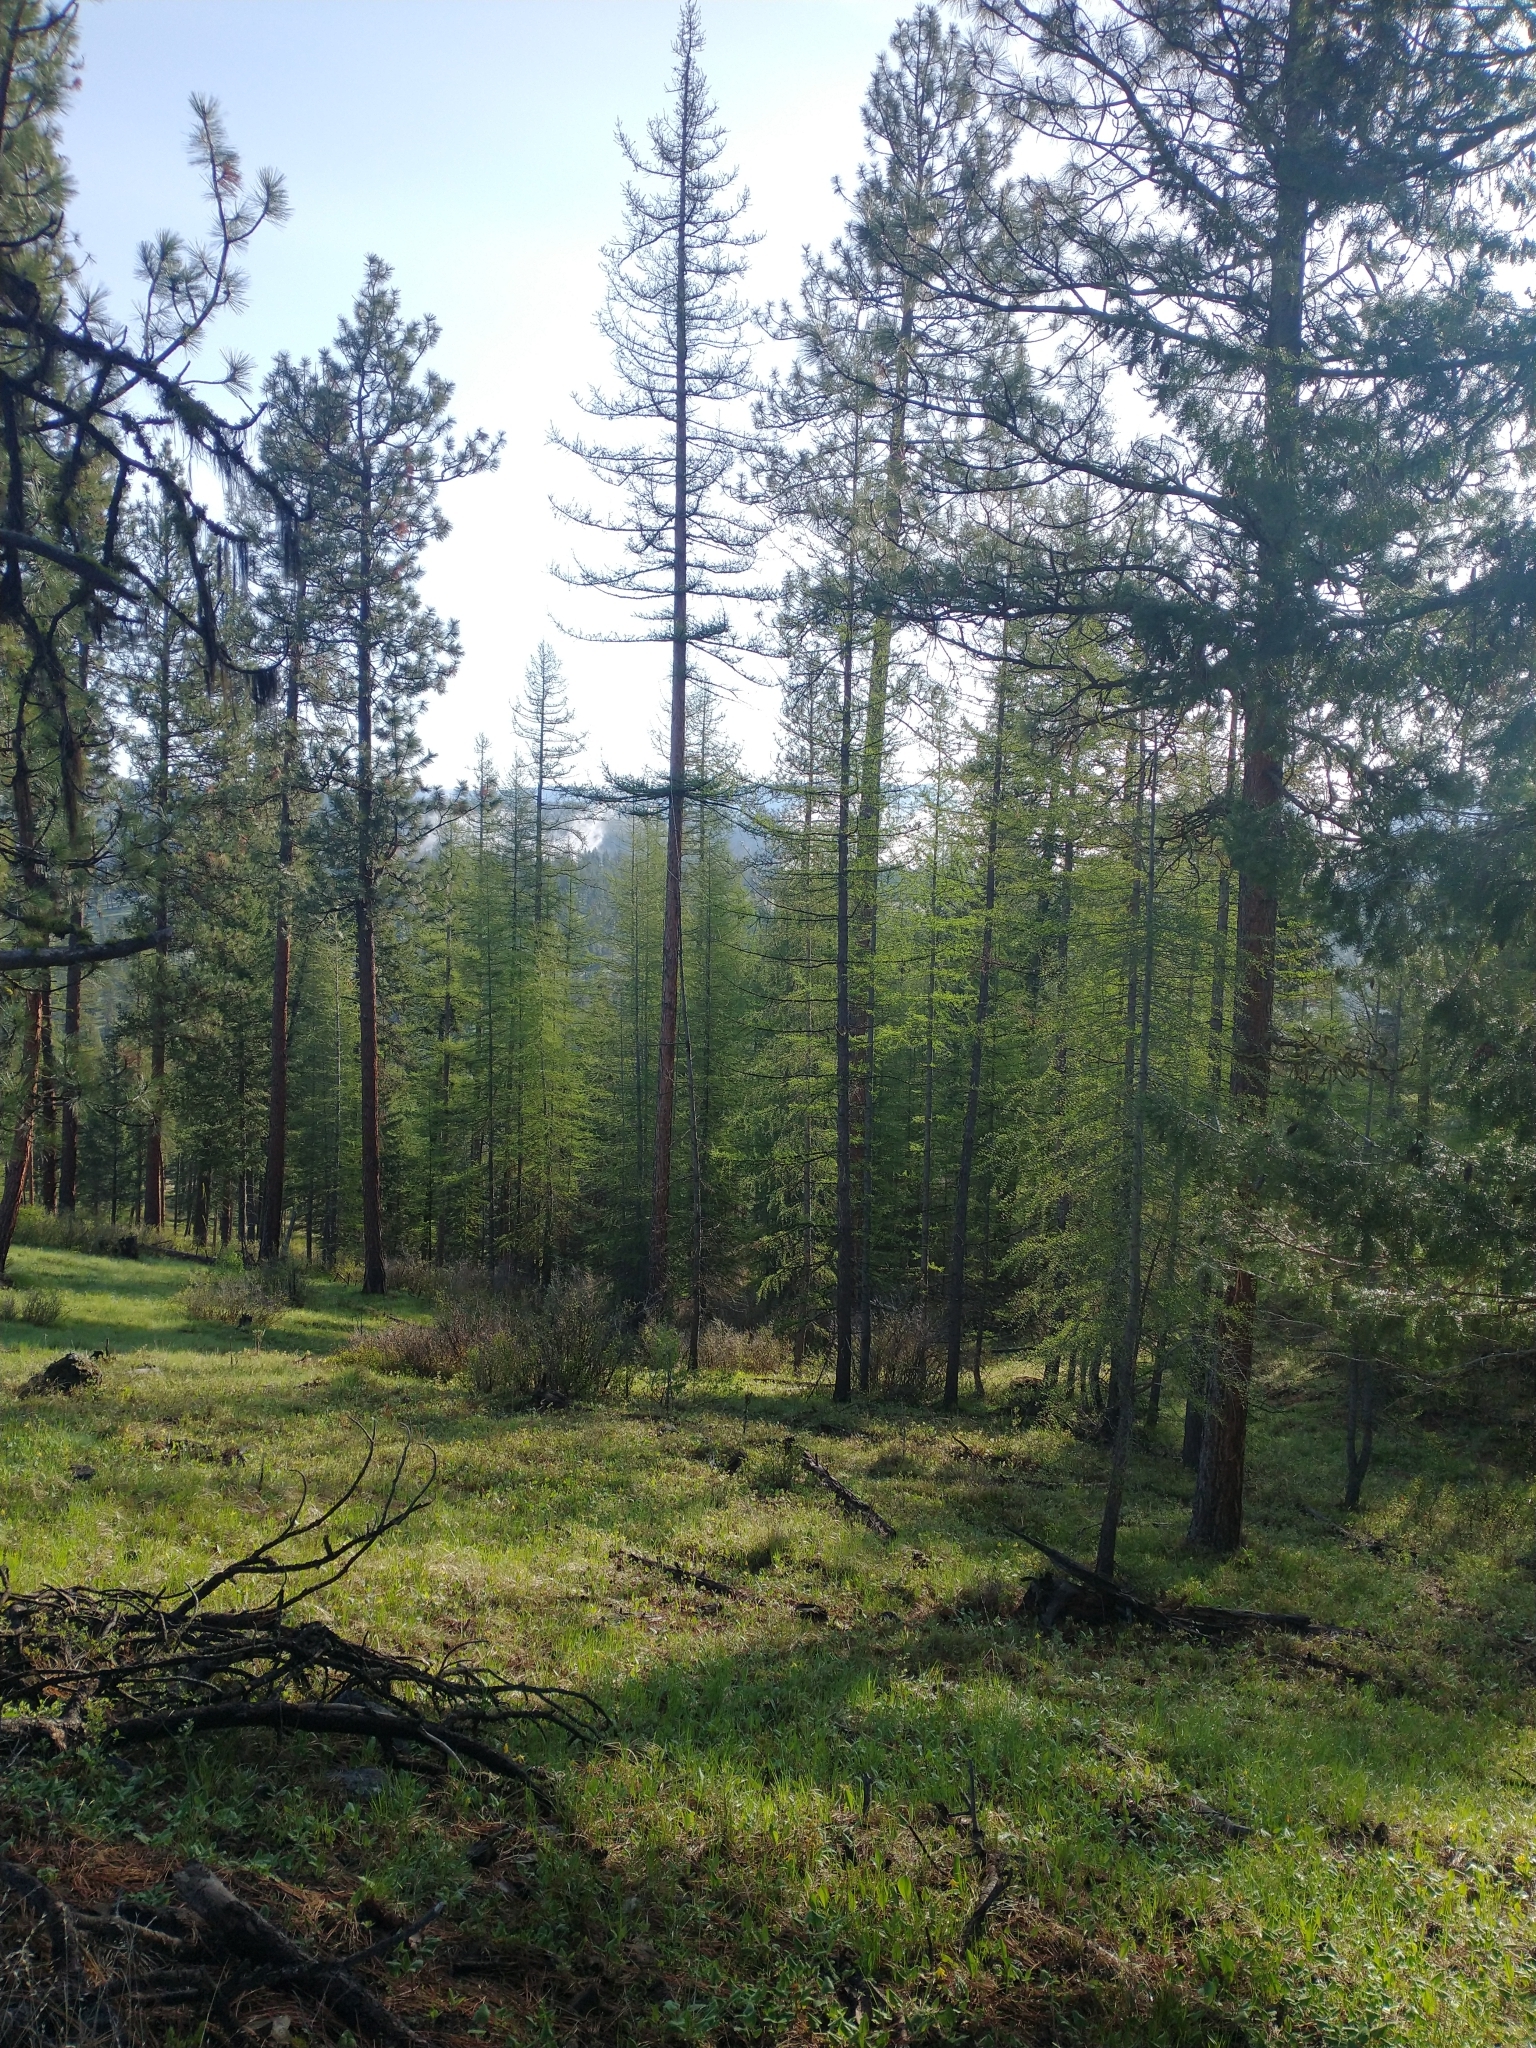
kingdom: Plantae
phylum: Tracheophyta
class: Pinopsida
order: Pinales
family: Pinaceae
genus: Larix
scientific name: Larix occidentalis
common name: Western larch
